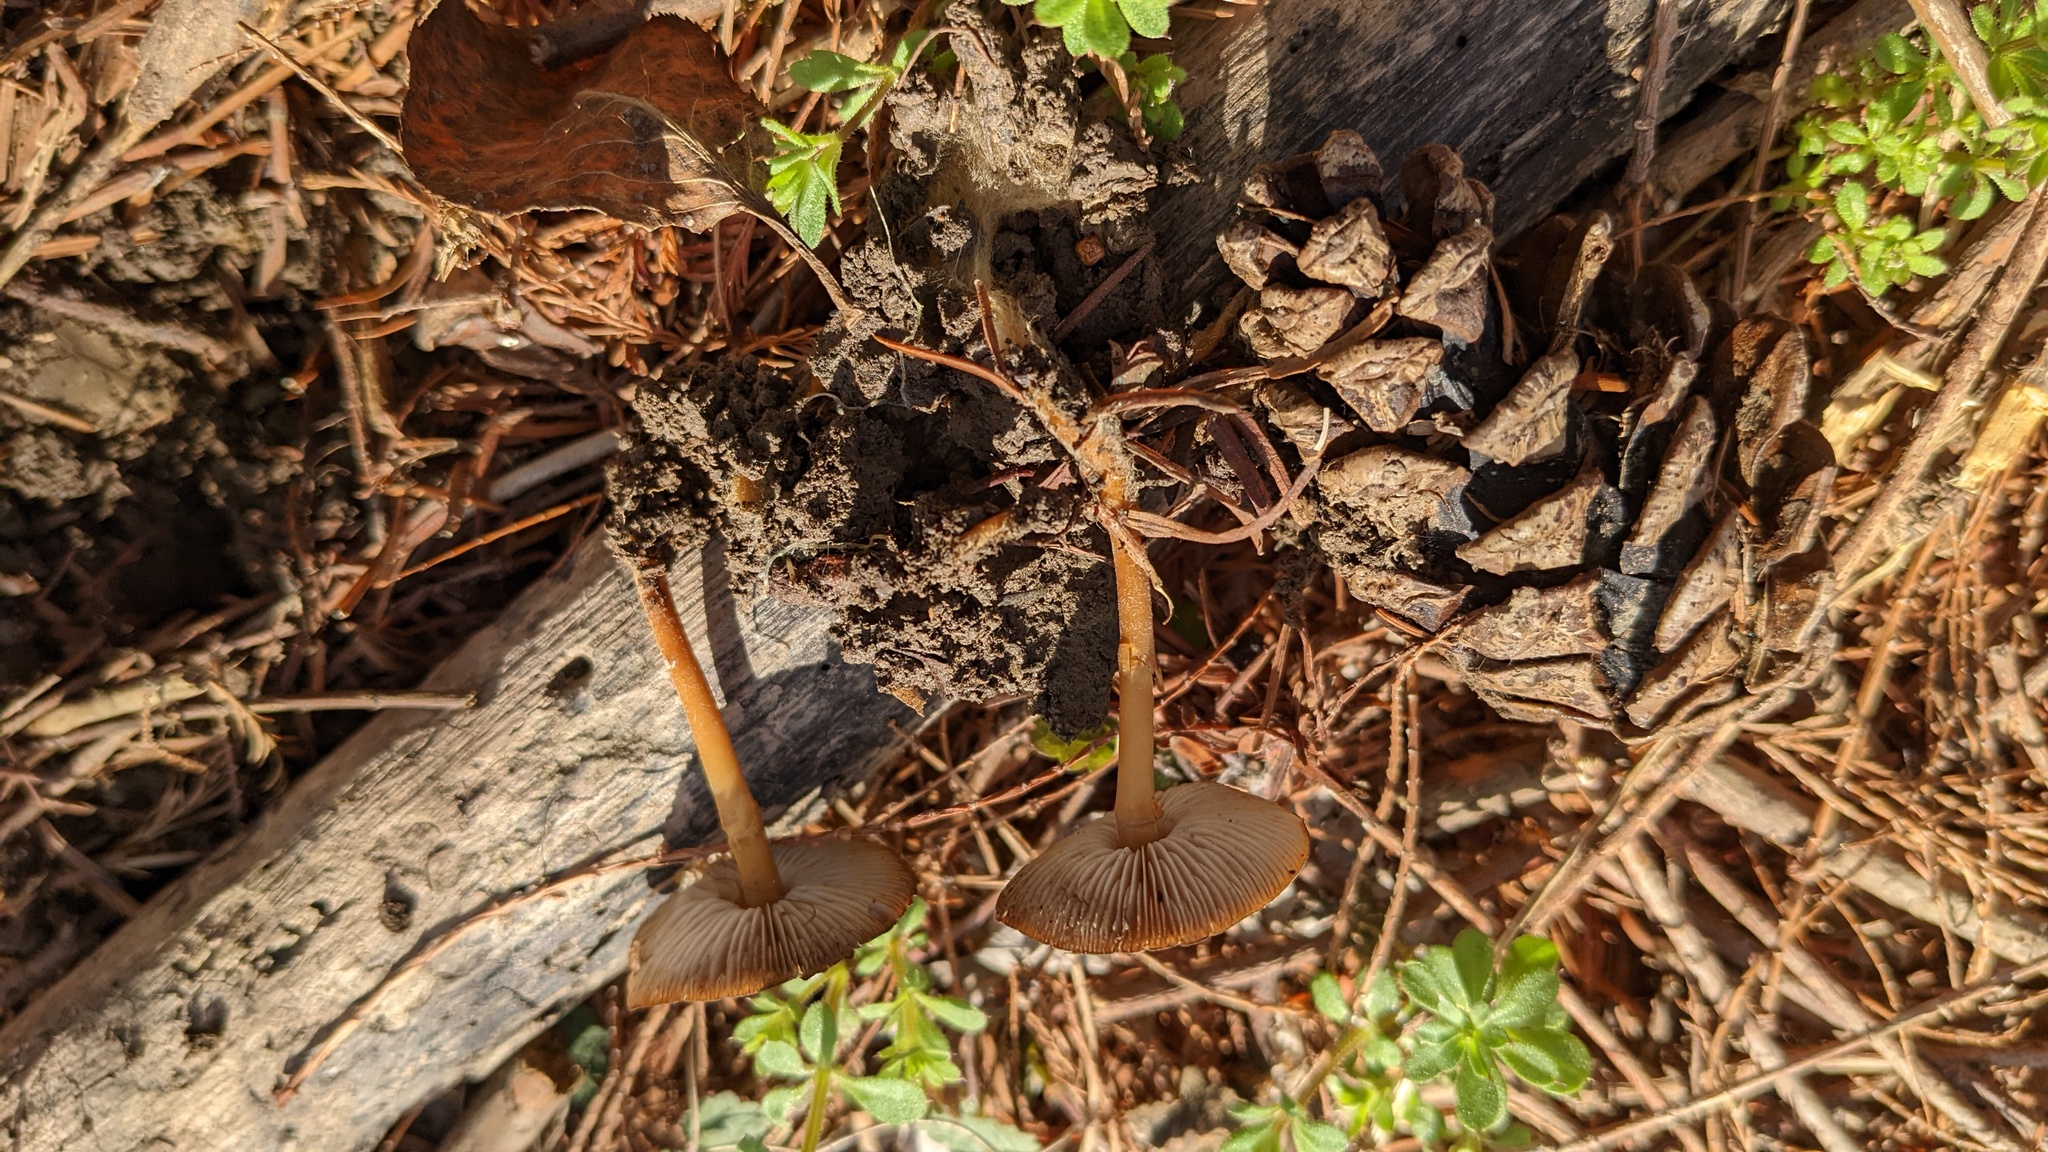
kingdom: Fungi
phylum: Basidiomycota
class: Agaricomycetes
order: Agaricales
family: Physalacriaceae
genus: Strobilurus
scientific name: Strobilurus stephanocystis
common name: Russian conecap
